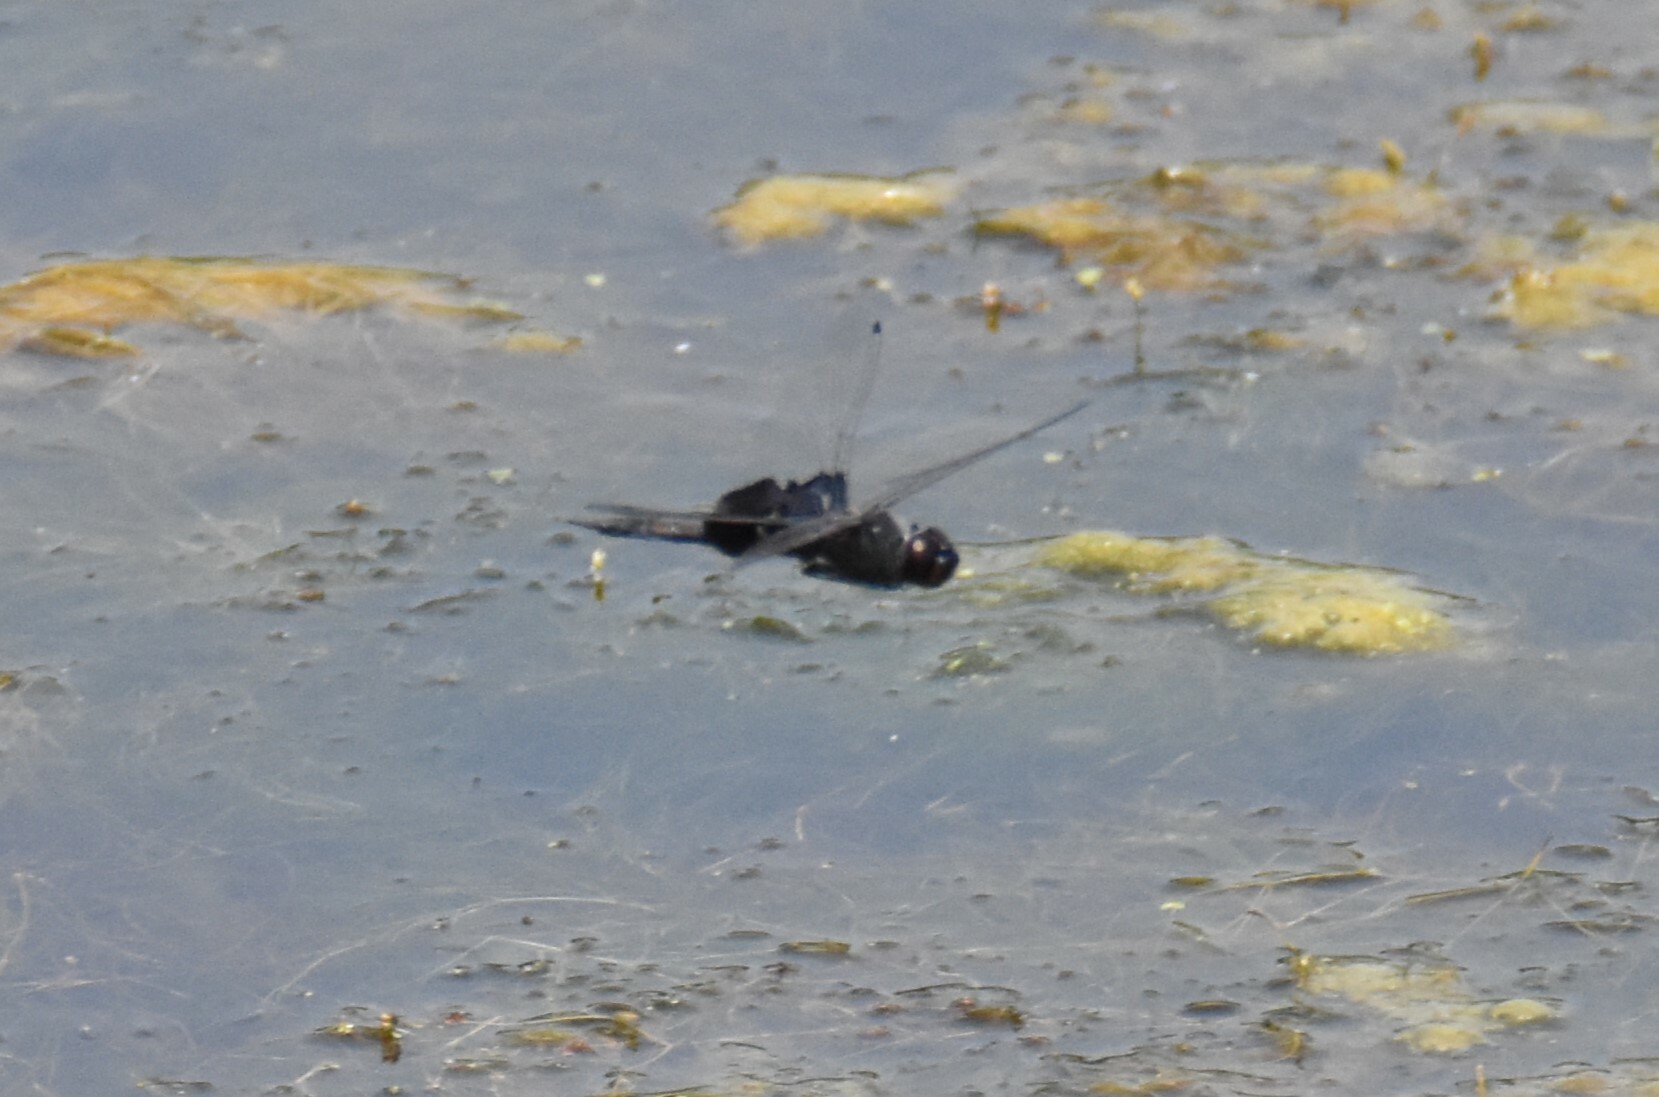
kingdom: Animalia
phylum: Arthropoda
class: Insecta
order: Odonata
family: Libellulidae
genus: Tramea
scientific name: Tramea lacerata
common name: Black saddlebags
